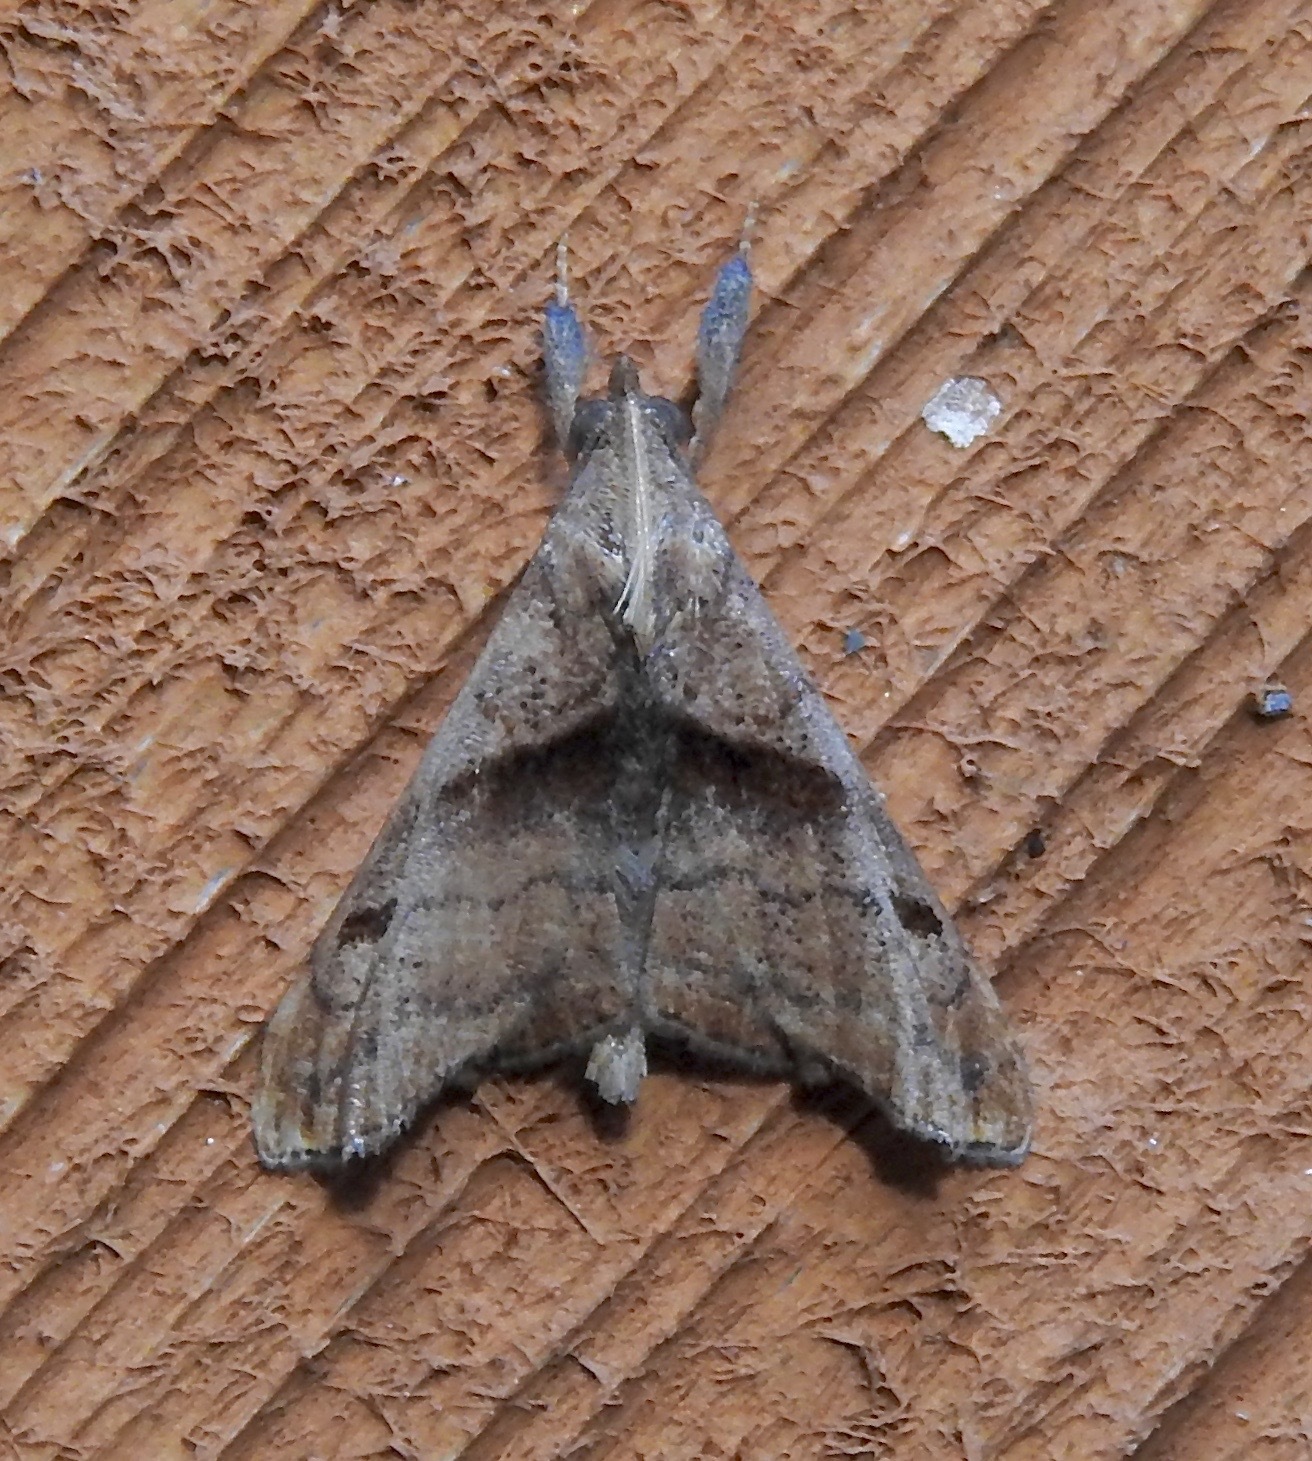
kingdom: Animalia
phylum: Arthropoda
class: Insecta
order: Lepidoptera
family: Erebidae
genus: Palthis
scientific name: Palthis angulalis
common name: Dark-spotted palthis moth
